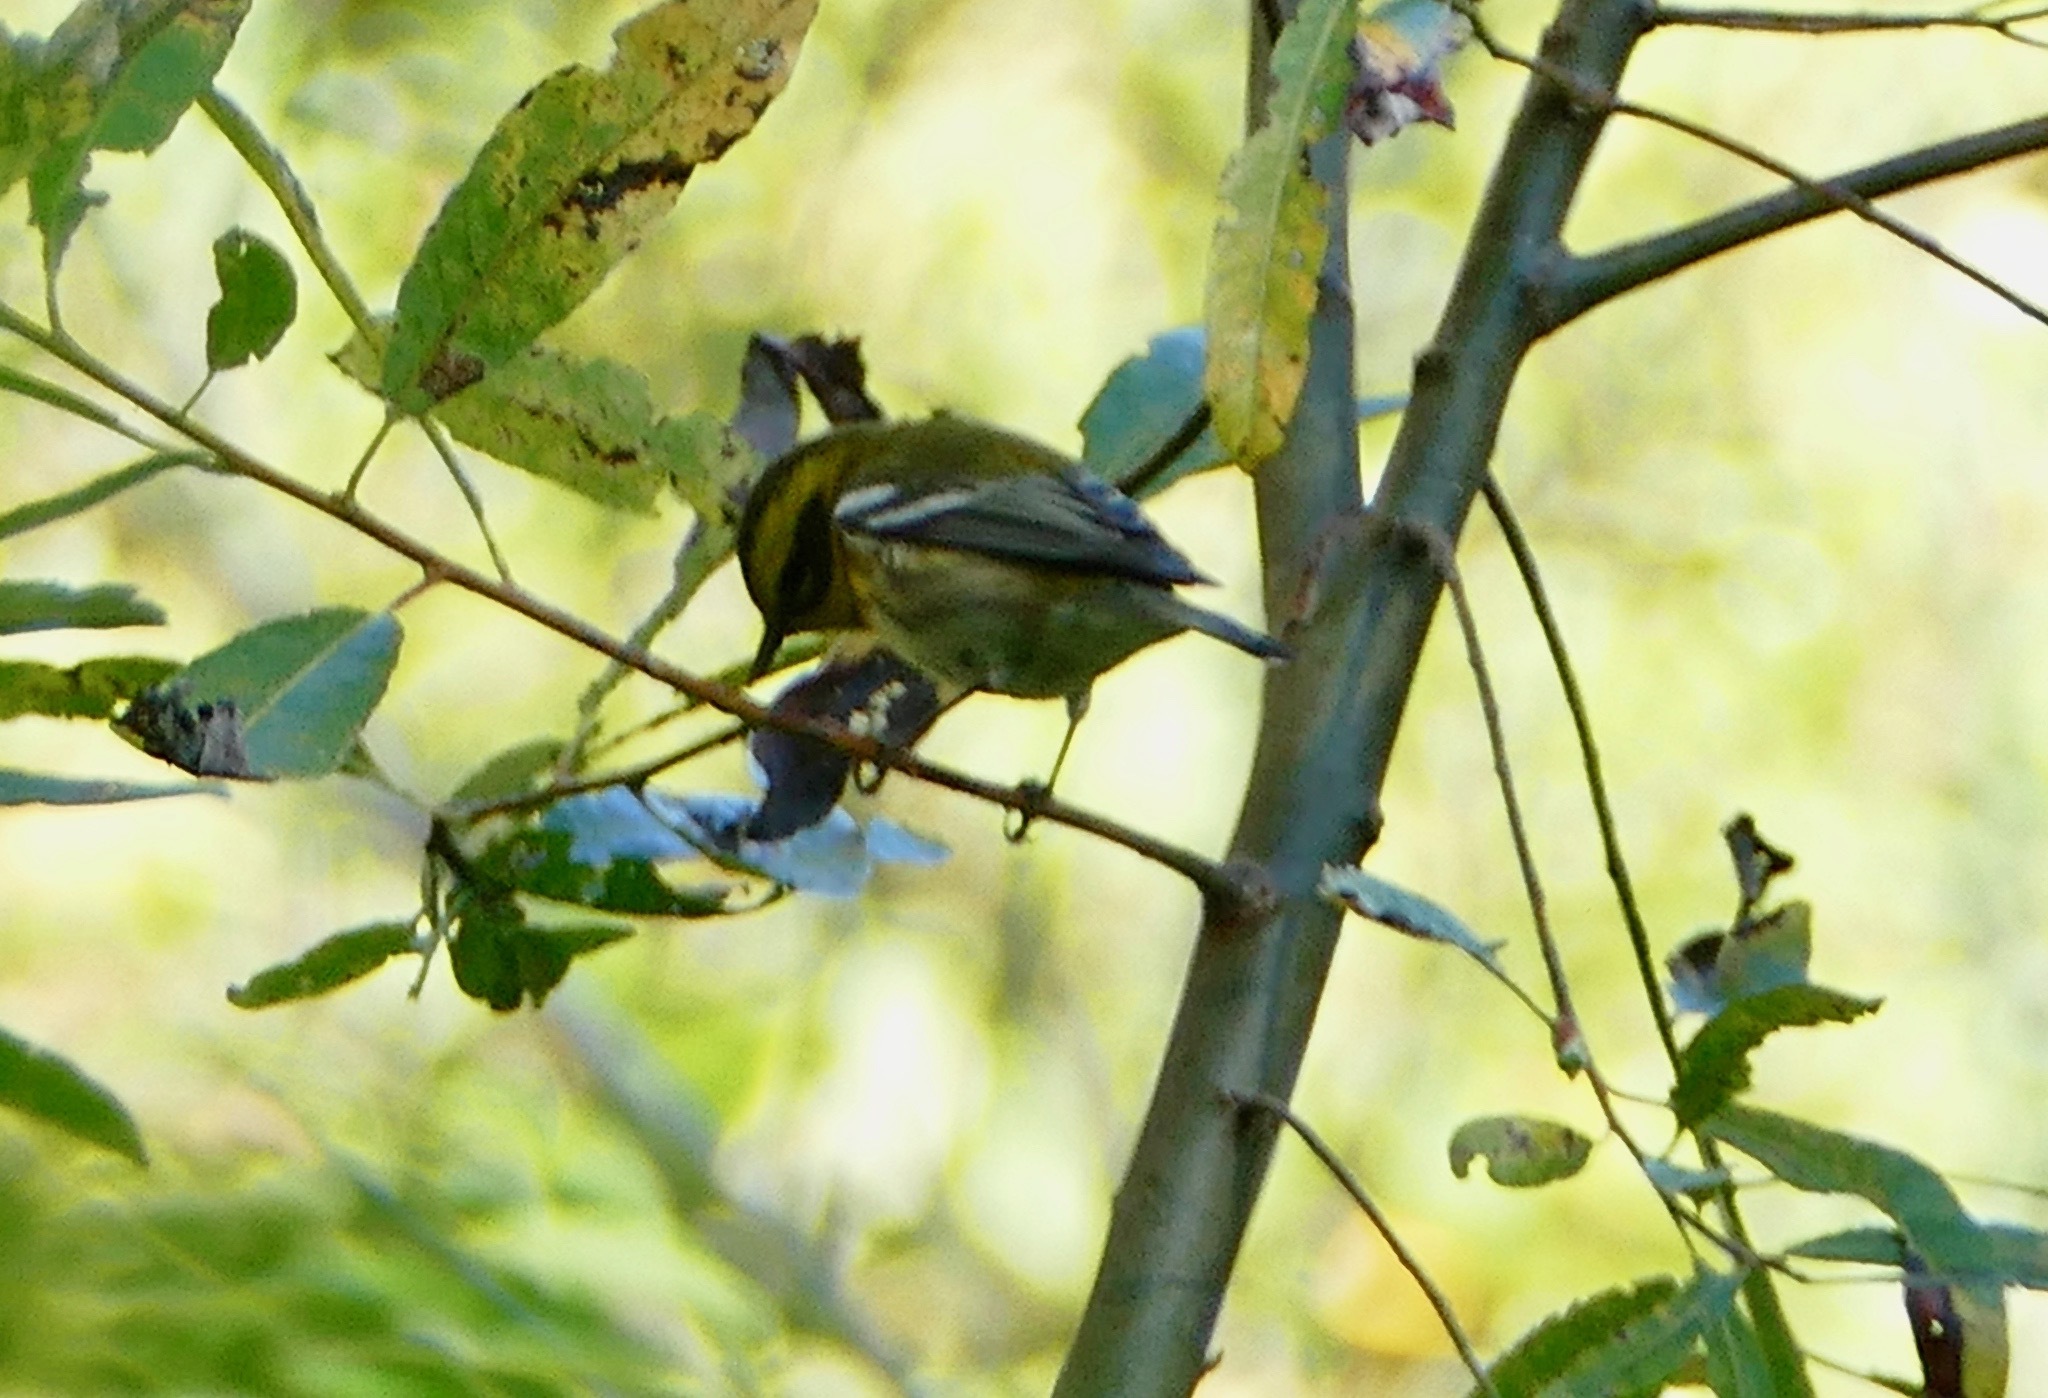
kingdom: Animalia
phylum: Chordata
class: Aves
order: Passeriformes
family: Parulidae
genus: Setophaga
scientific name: Setophaga townsendi
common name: Townsend's warbler
